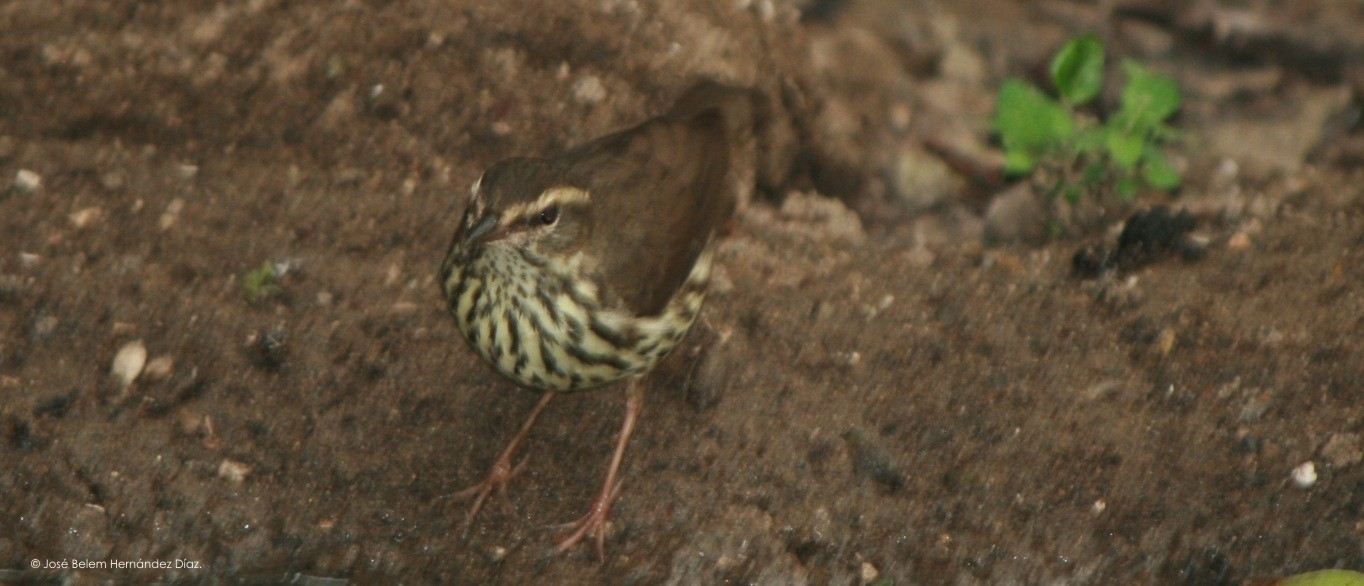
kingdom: Animalia
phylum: Chordata
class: Aves
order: Passeriformes
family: Parulidae
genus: Parkesia
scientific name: Parkesia noveboracensis
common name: Northern waterthrush
